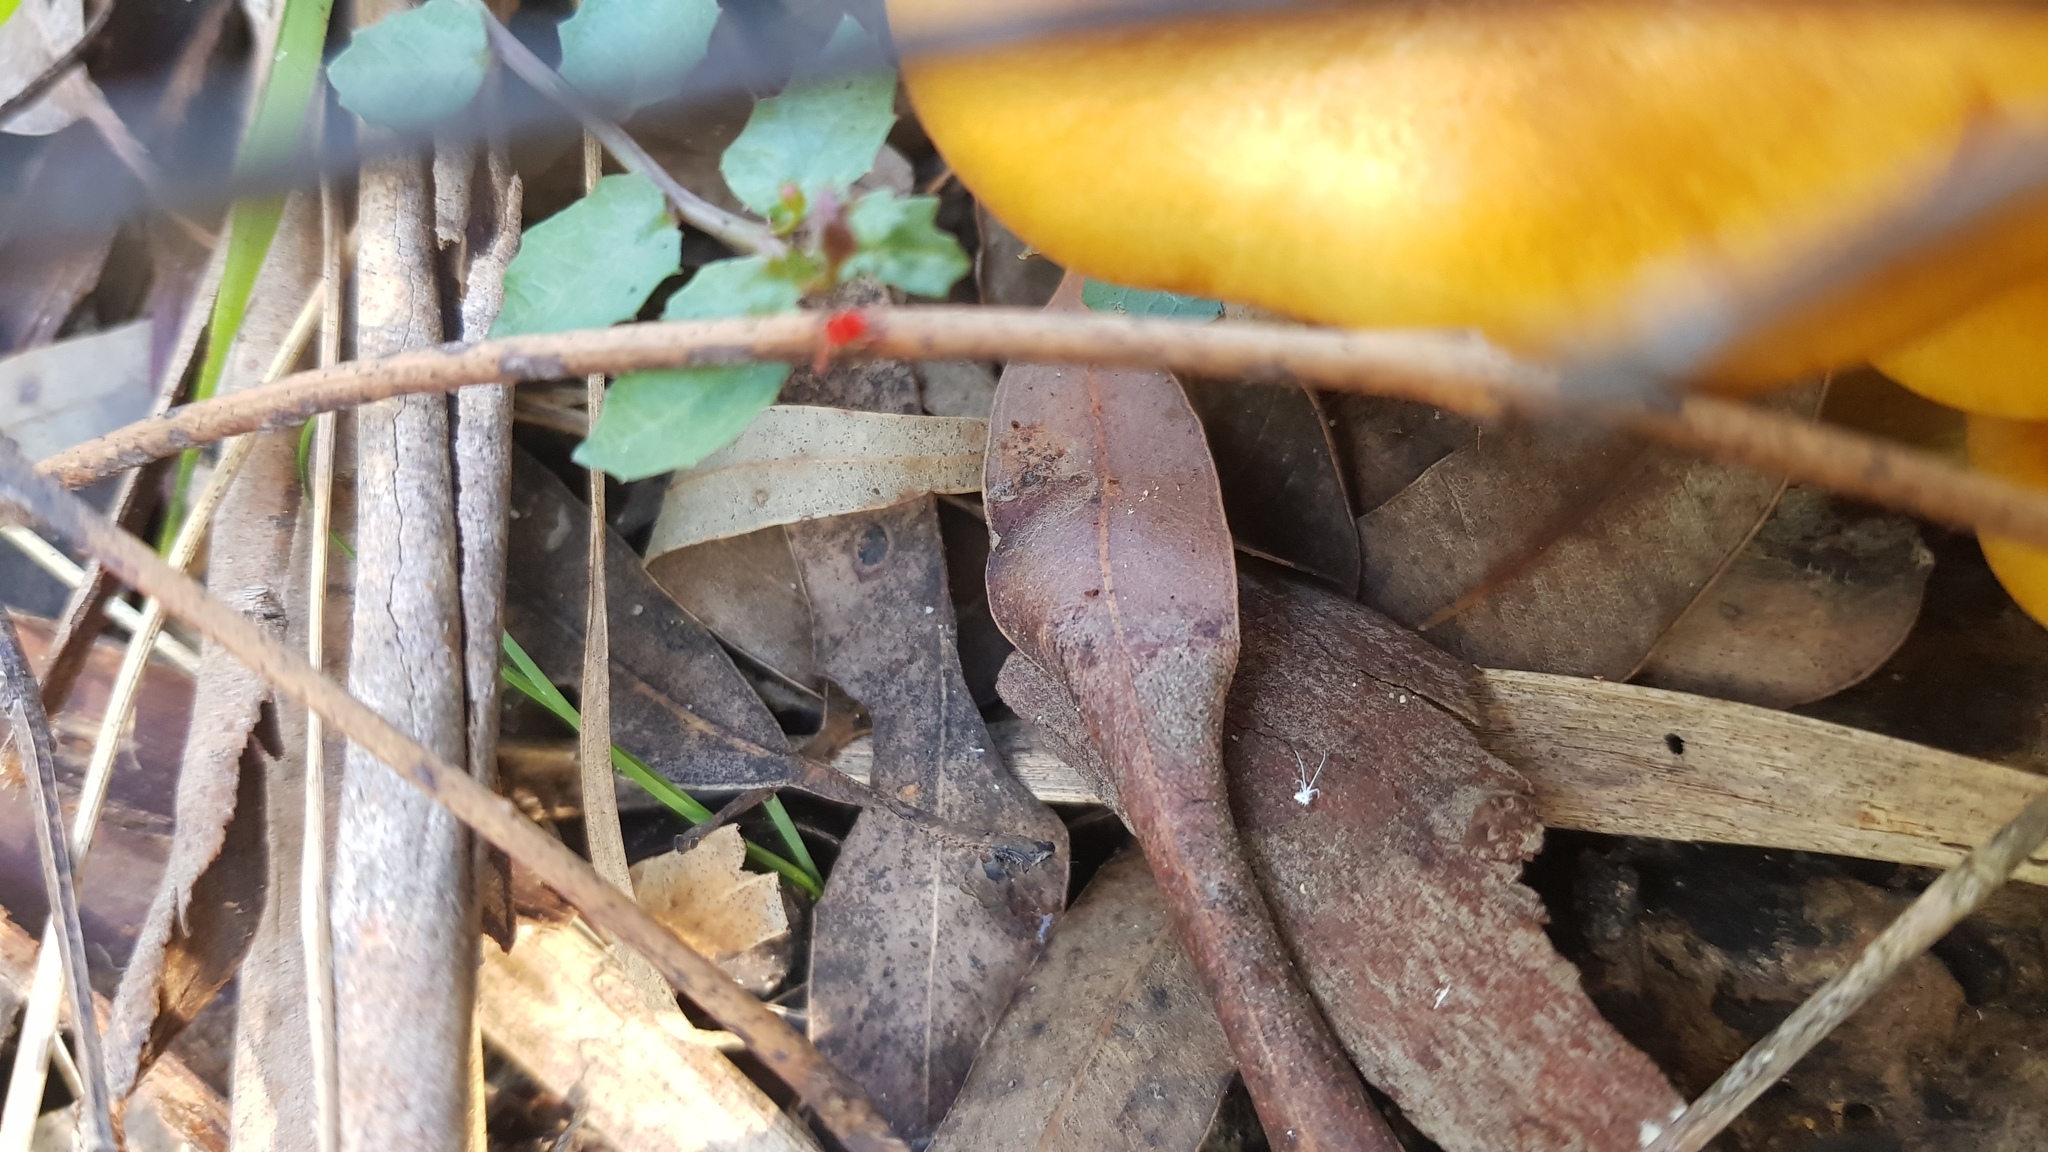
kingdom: Fungi
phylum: Basidiomycota
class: Agaricomycetes
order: Agaricales
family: Omphalotaceae
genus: Omphalotus
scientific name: Omphalotus nidiformis
